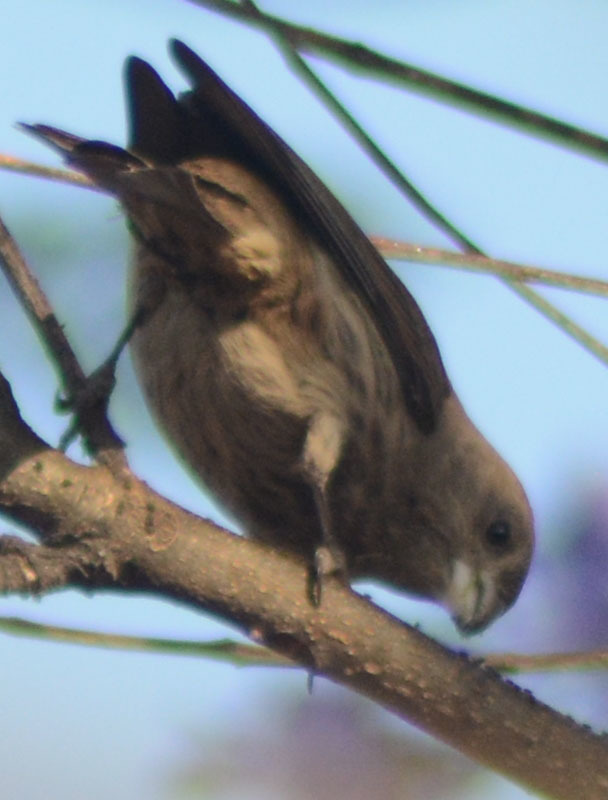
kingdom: Animalia
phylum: Chordata
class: Aves
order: Passeriformes
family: Fringillidae
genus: Haemorhous
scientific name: Haemorhous mexicanus
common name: House finch
